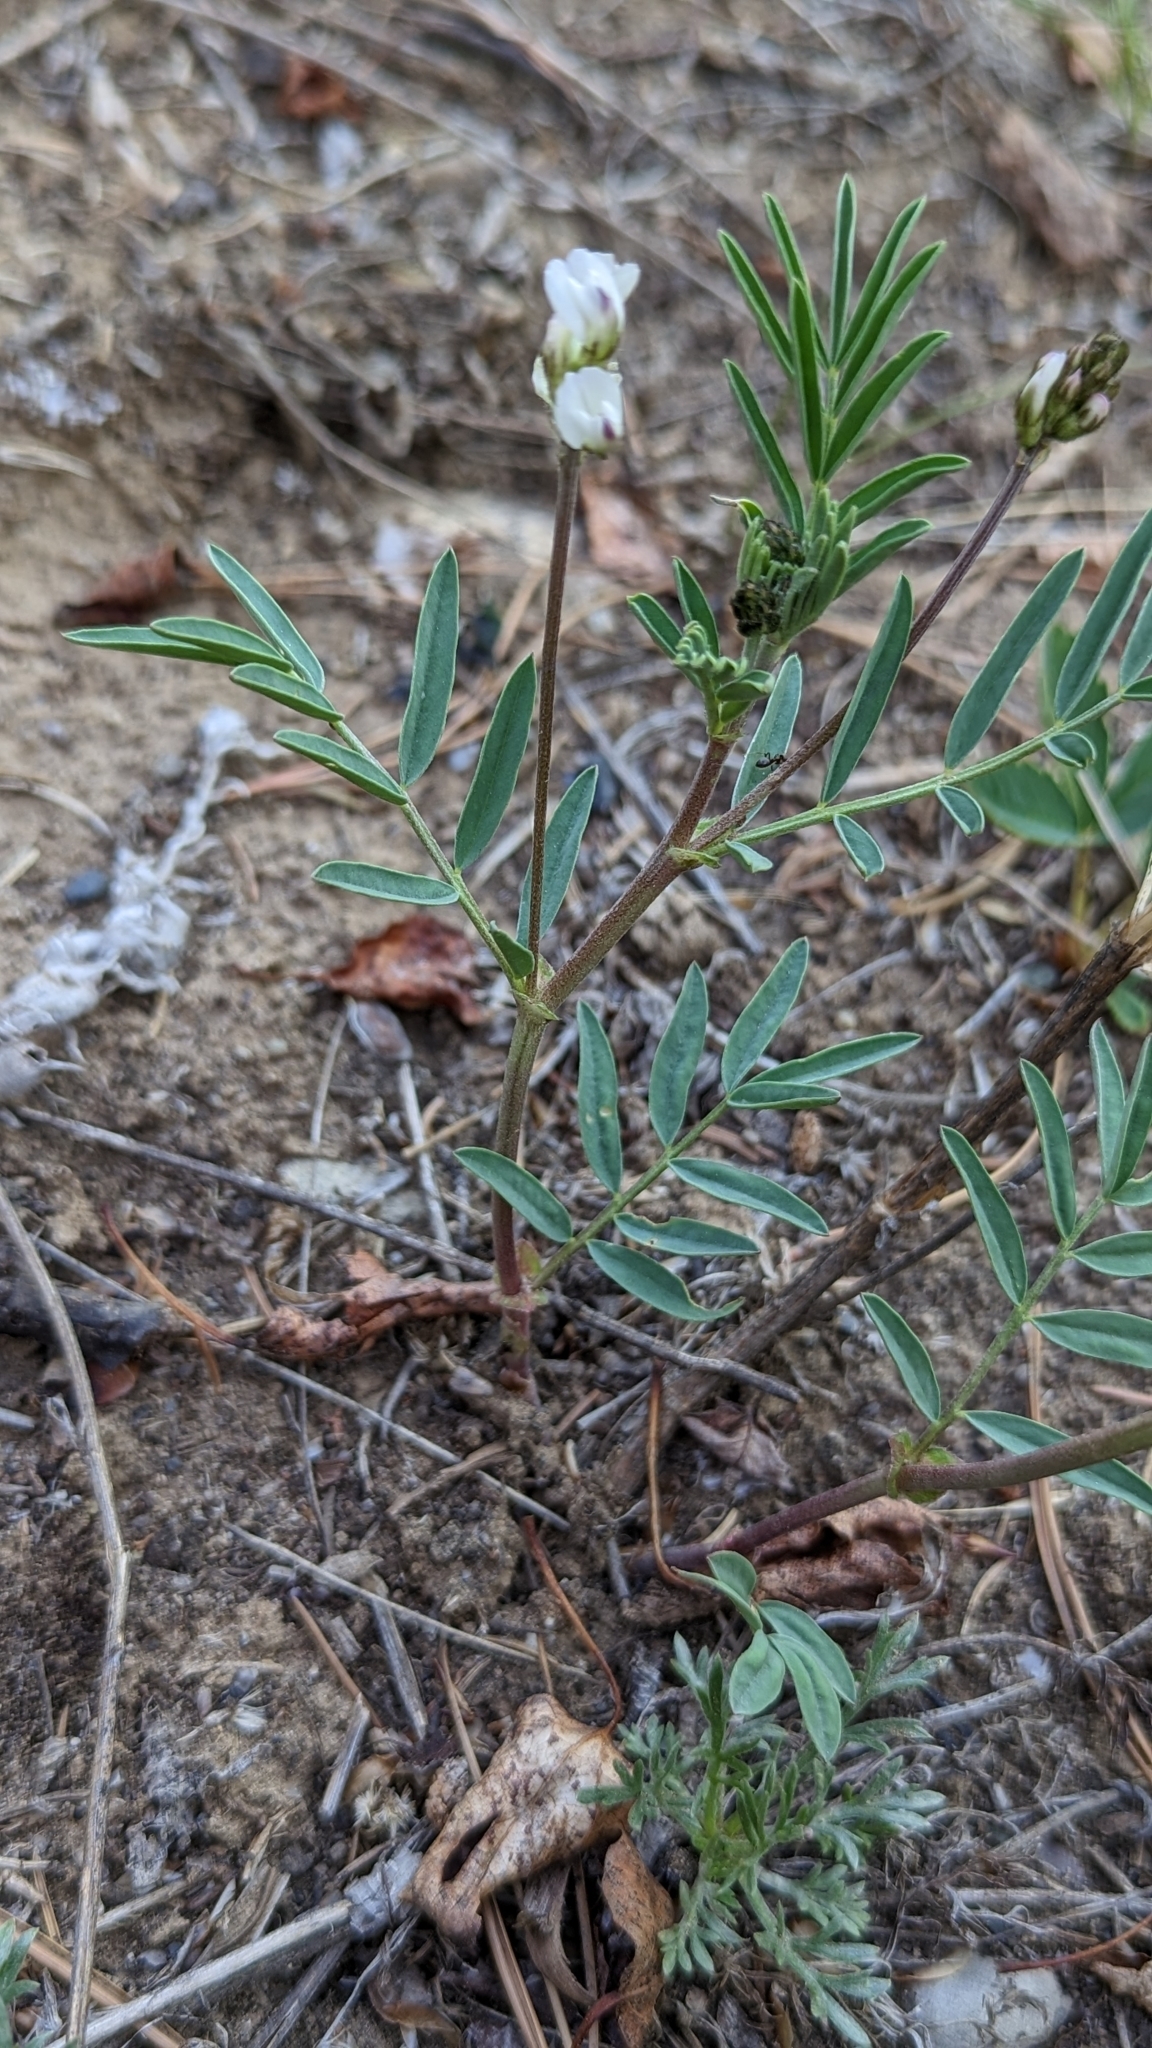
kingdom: Plantae
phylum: Tracheophyta
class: Magnoliopsida
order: Fabales
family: Fabaceae
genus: Astragalus
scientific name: Astragalus australis
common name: Indian milk-vetch
